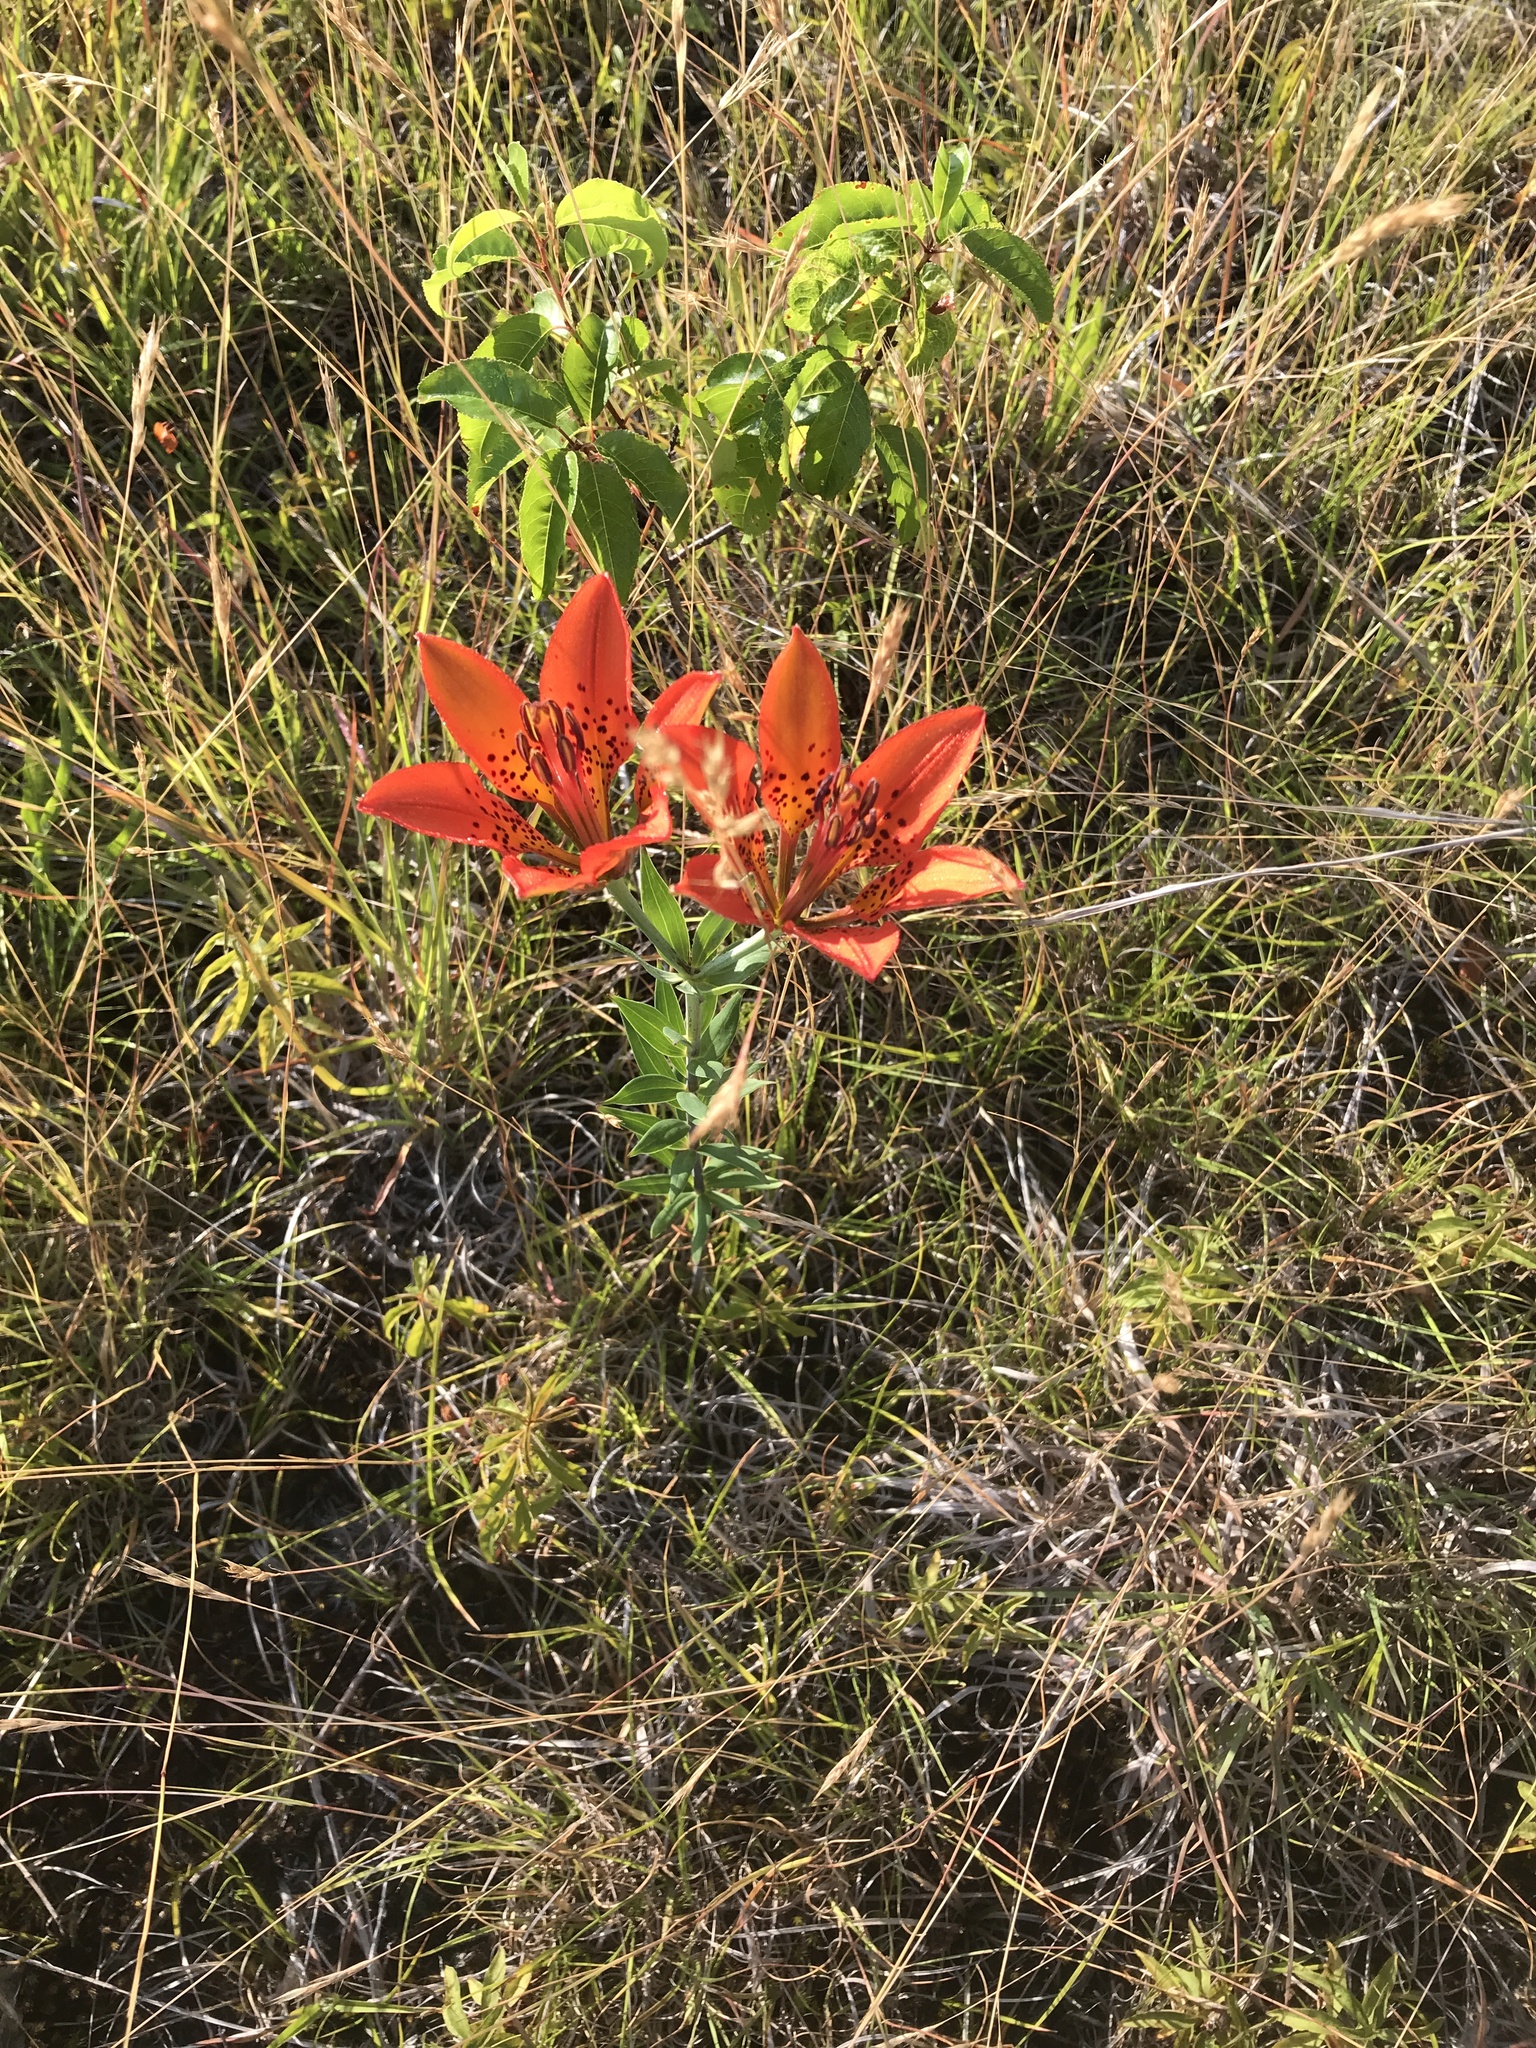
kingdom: Plantae
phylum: Tracheophyta
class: Liliopsida
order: Liliales
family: Liliaceae
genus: Lilium
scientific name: Lilium philadelphicum
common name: Red lily
